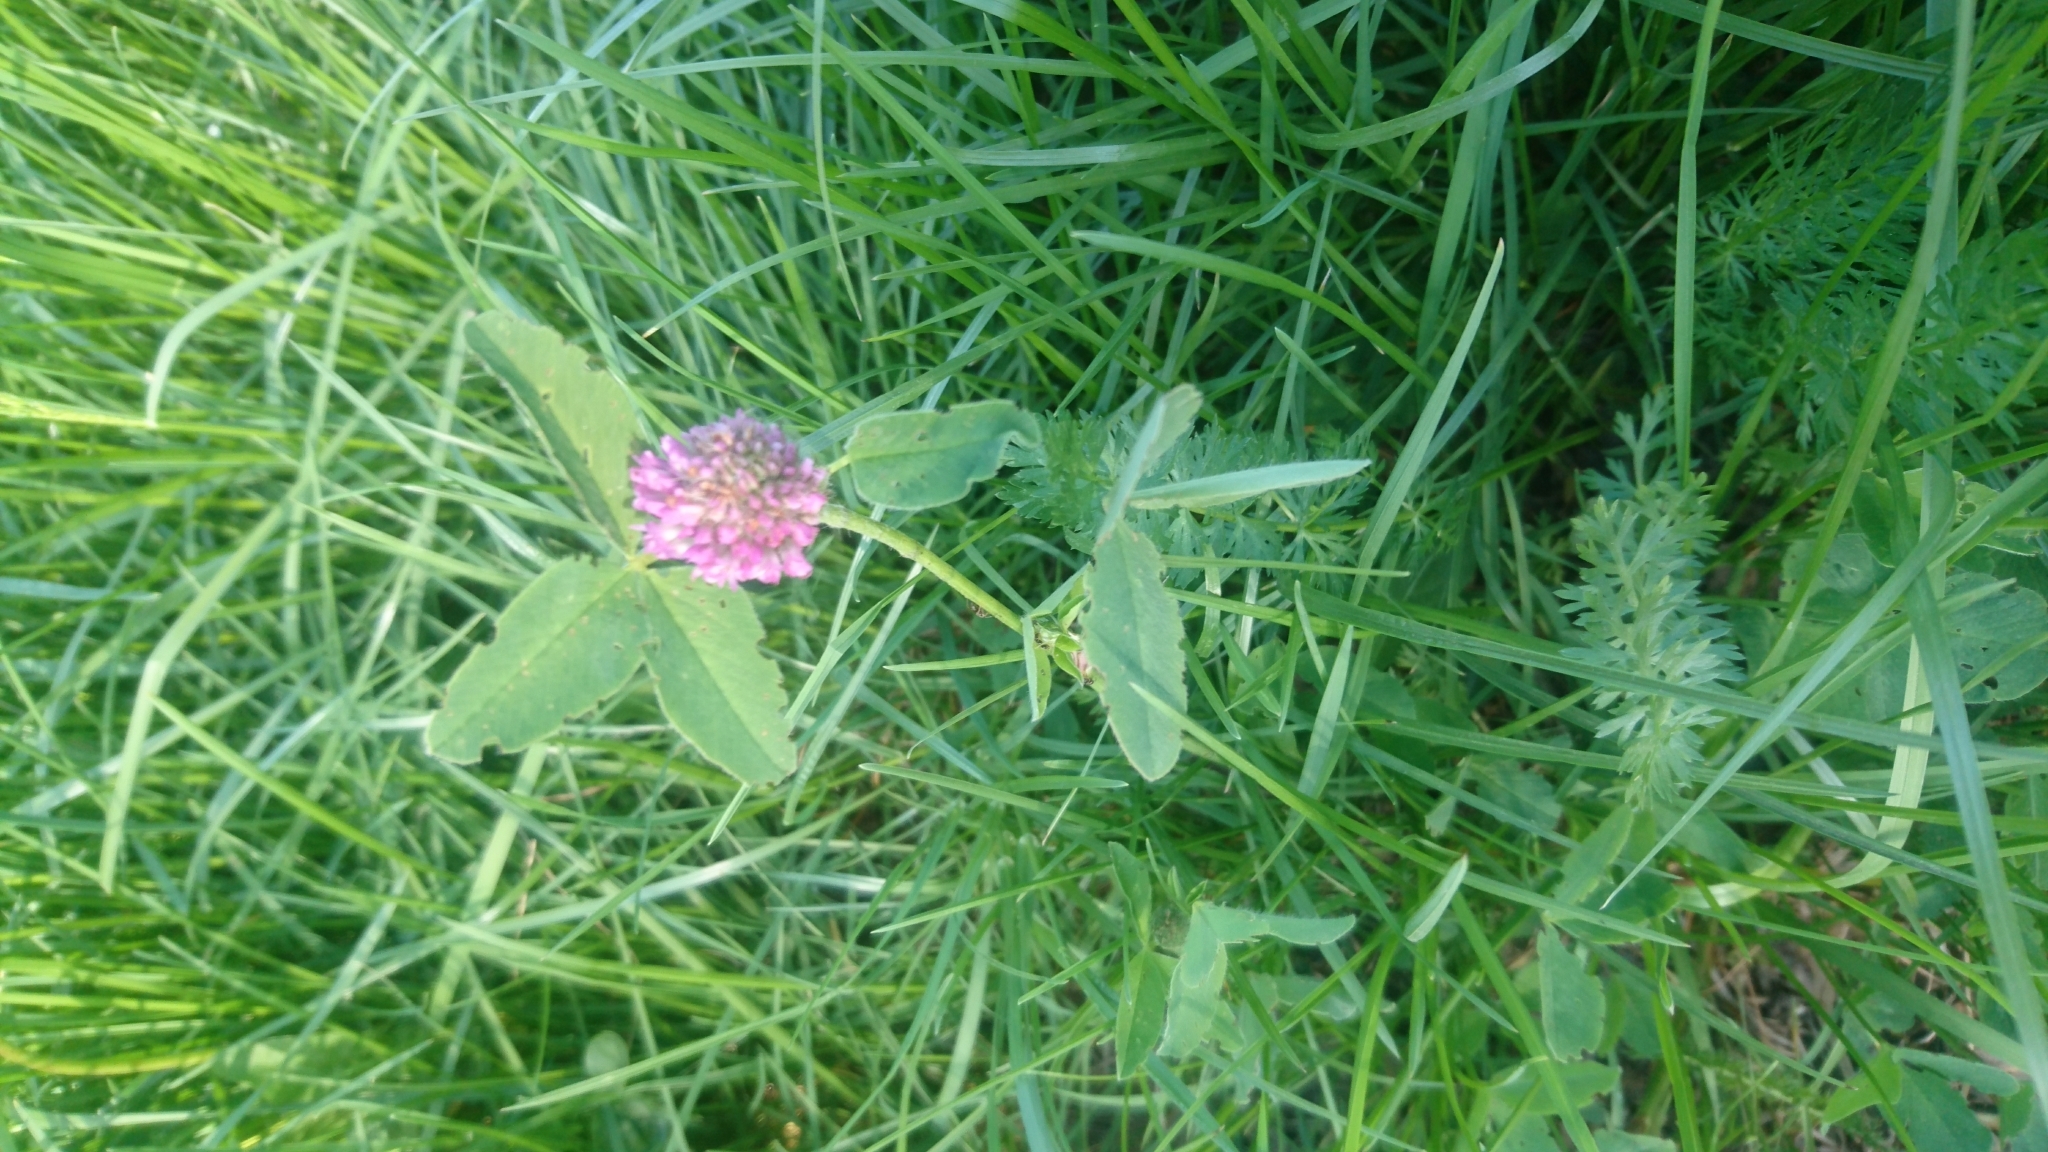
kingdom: Plantae
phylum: Tracheophyta
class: Magnoliopsida
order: Fabales
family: Fabaceae
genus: Trifolium
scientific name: Trifolium pratense
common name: Red clover
